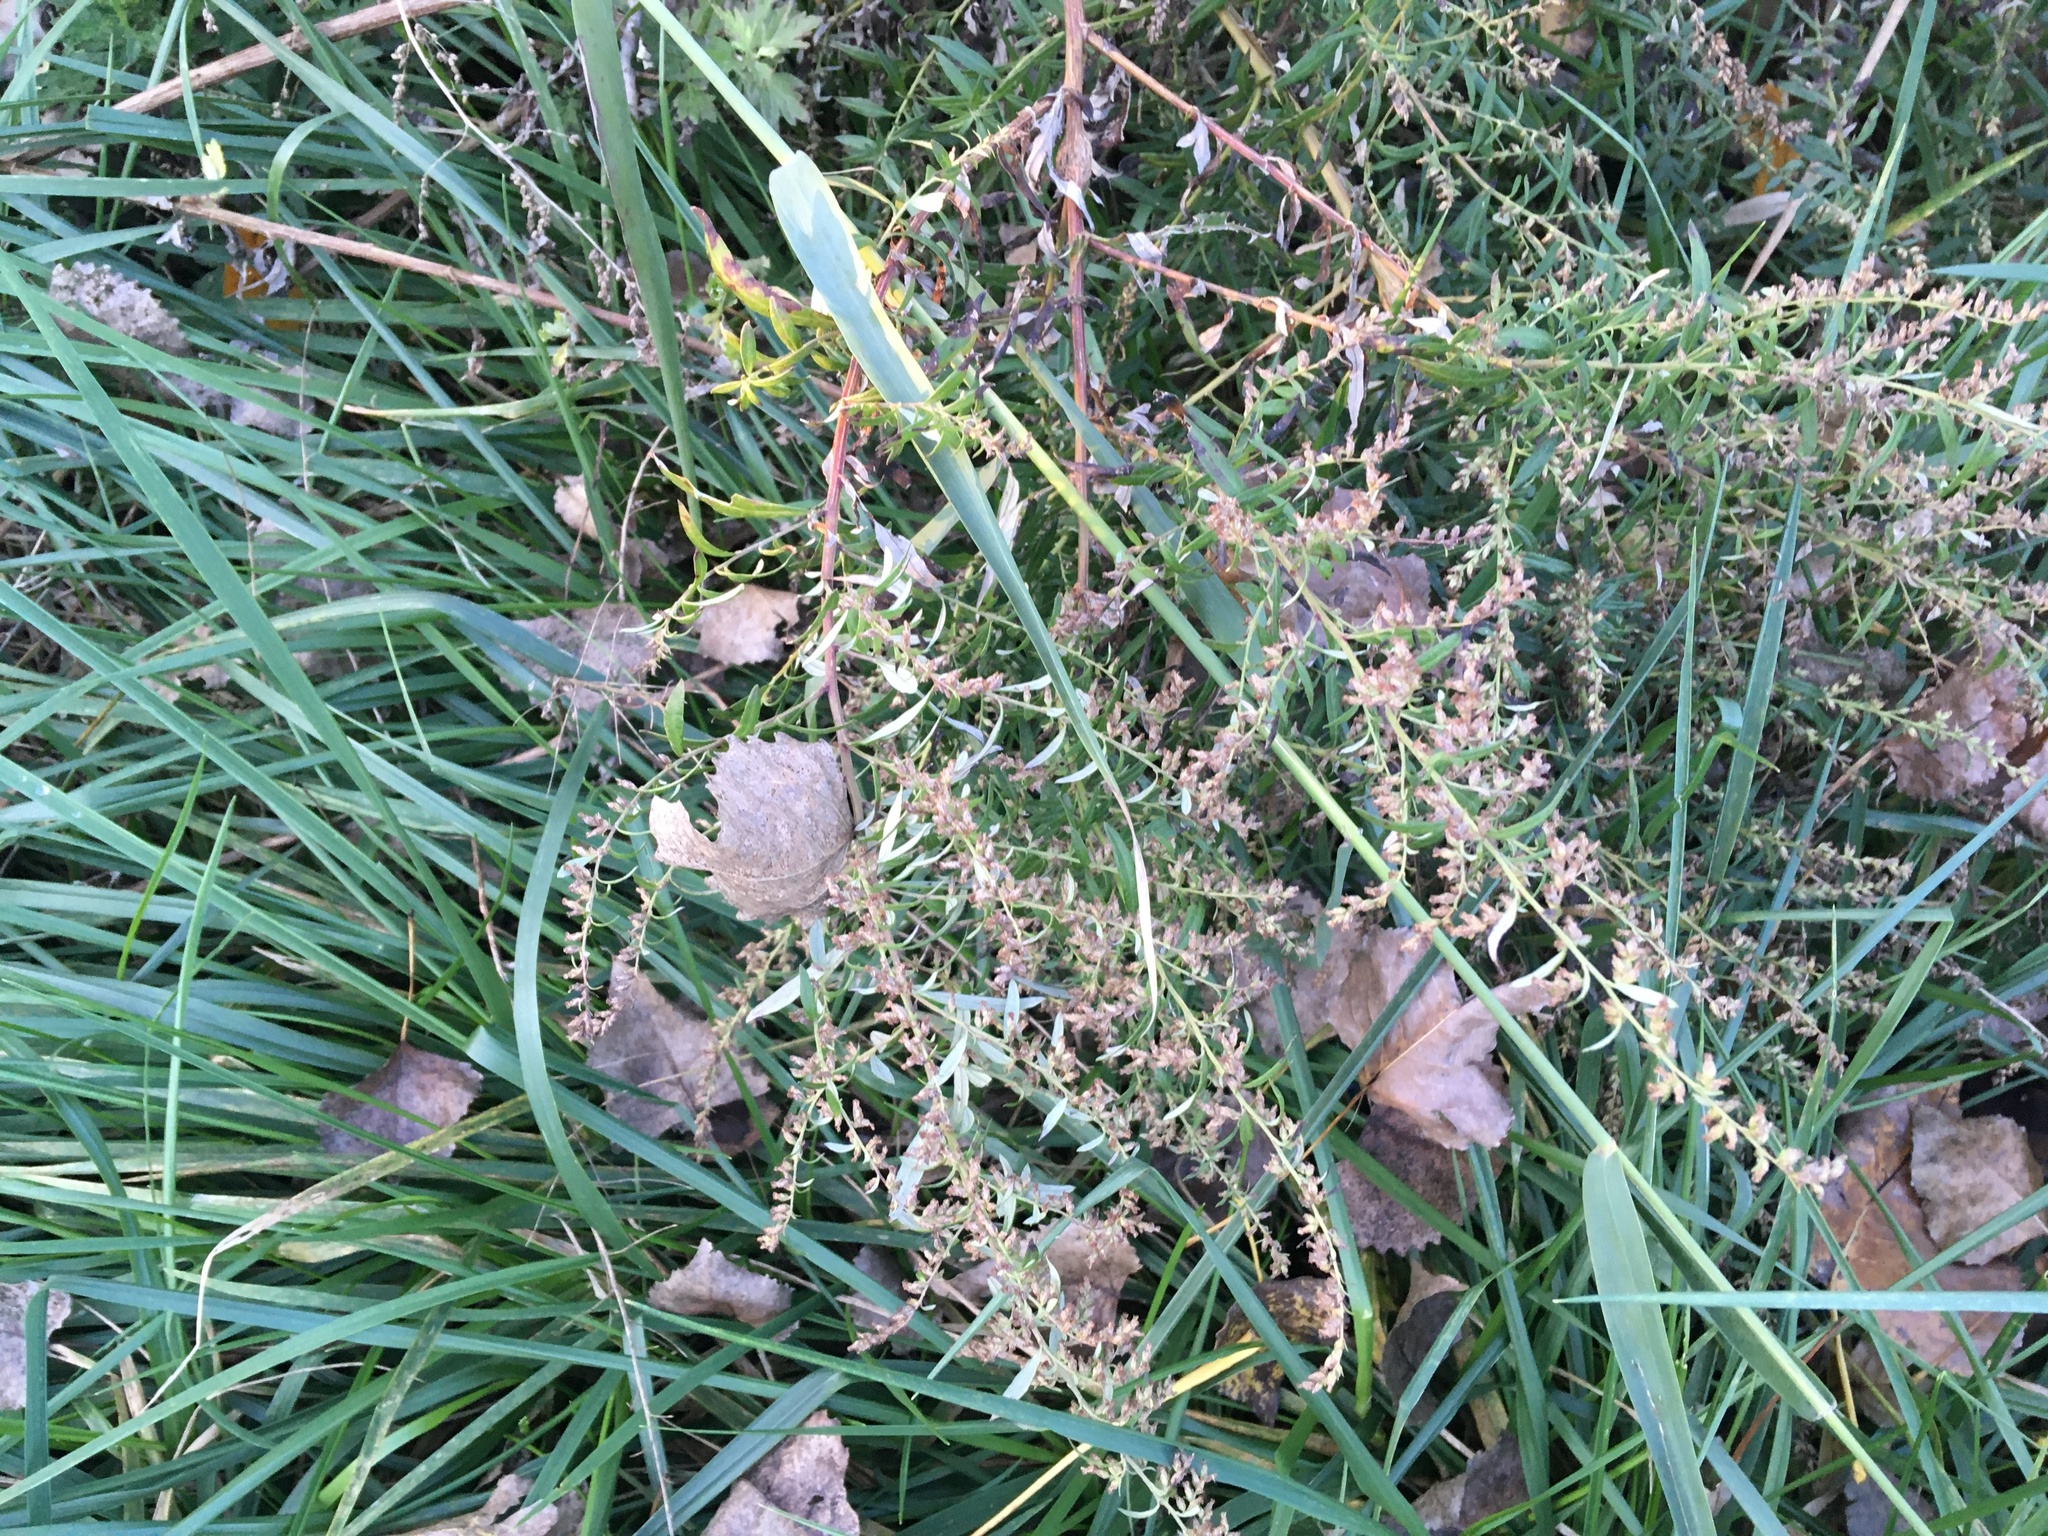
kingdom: Plantae
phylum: Tracheophyta
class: Magnoliopsida
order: Asterales
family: Asteraceae
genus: Artemisia
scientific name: Artemisia vulgaris
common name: Mugwort
